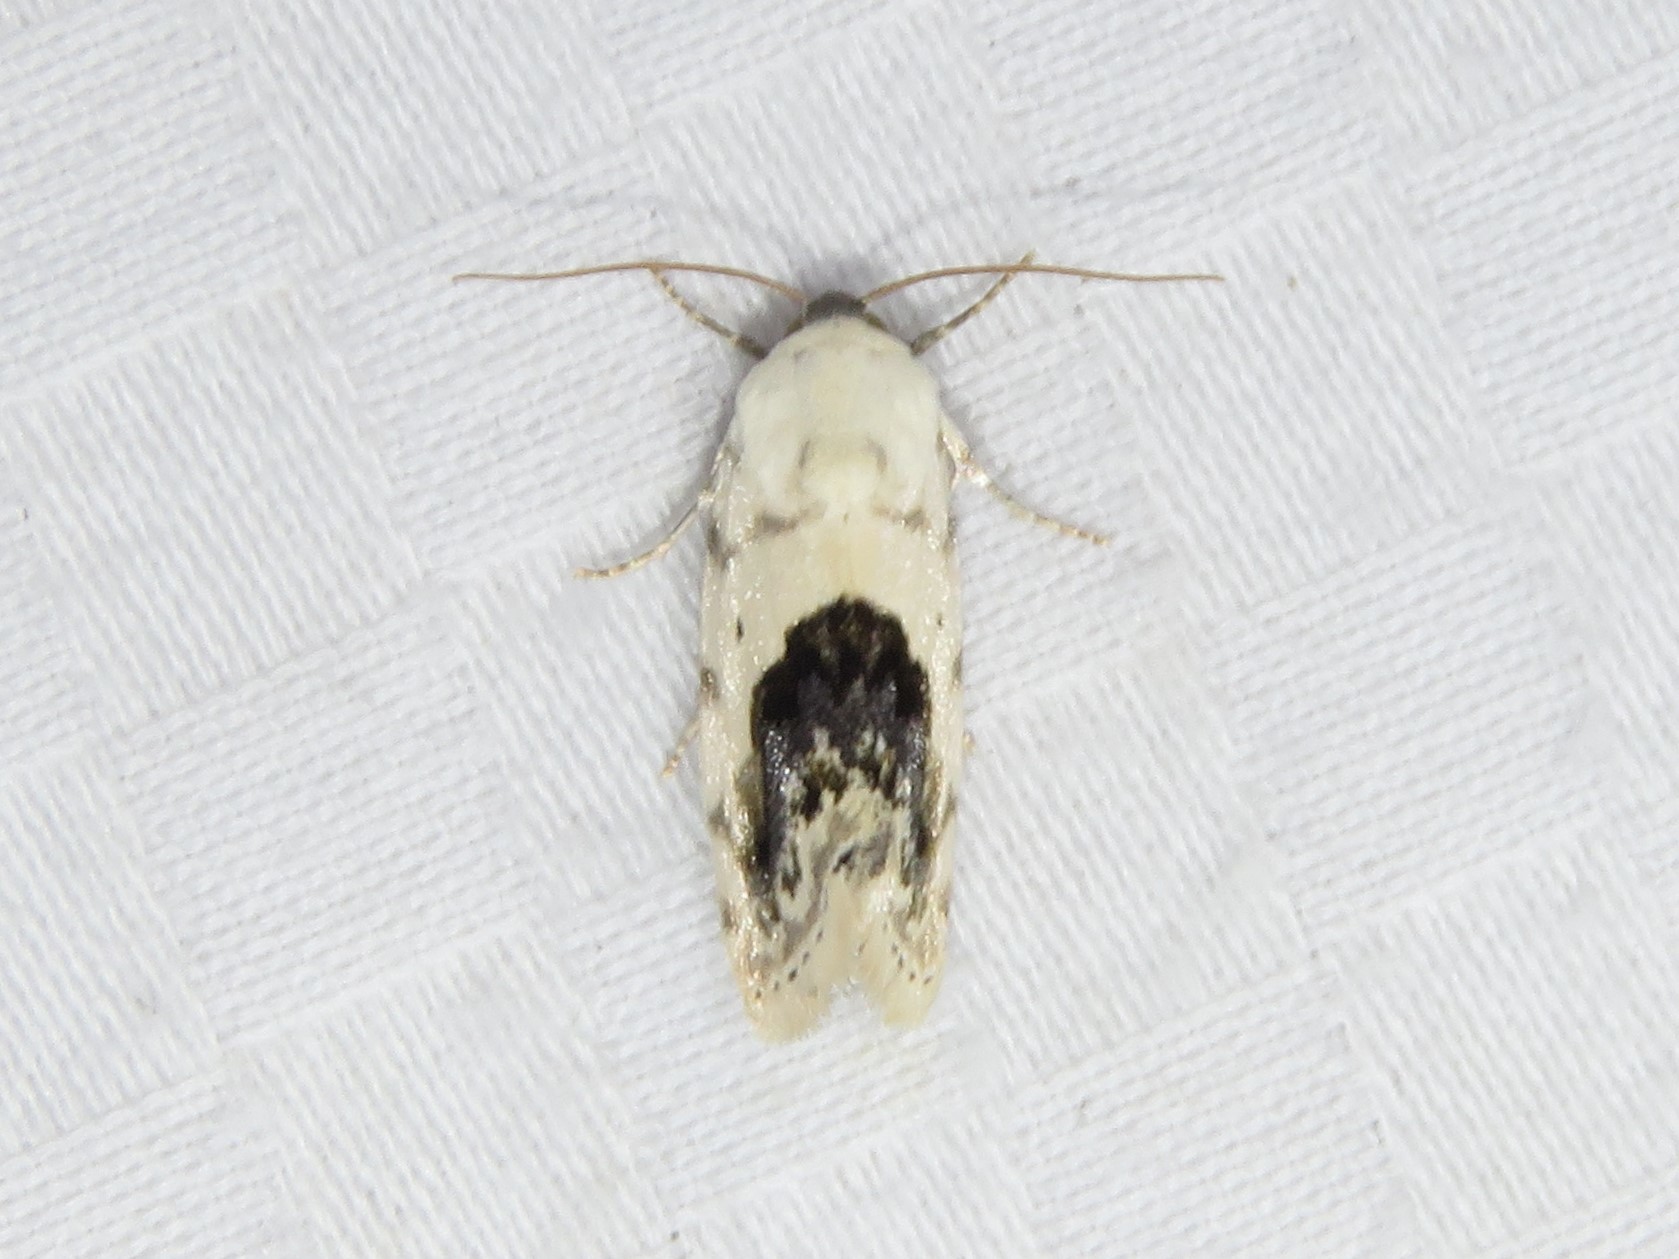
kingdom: Animalia
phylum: Arthropoda
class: Insecta
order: Lepidoptera
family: Noctuidae
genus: Acontia
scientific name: Acontia erastrioides
